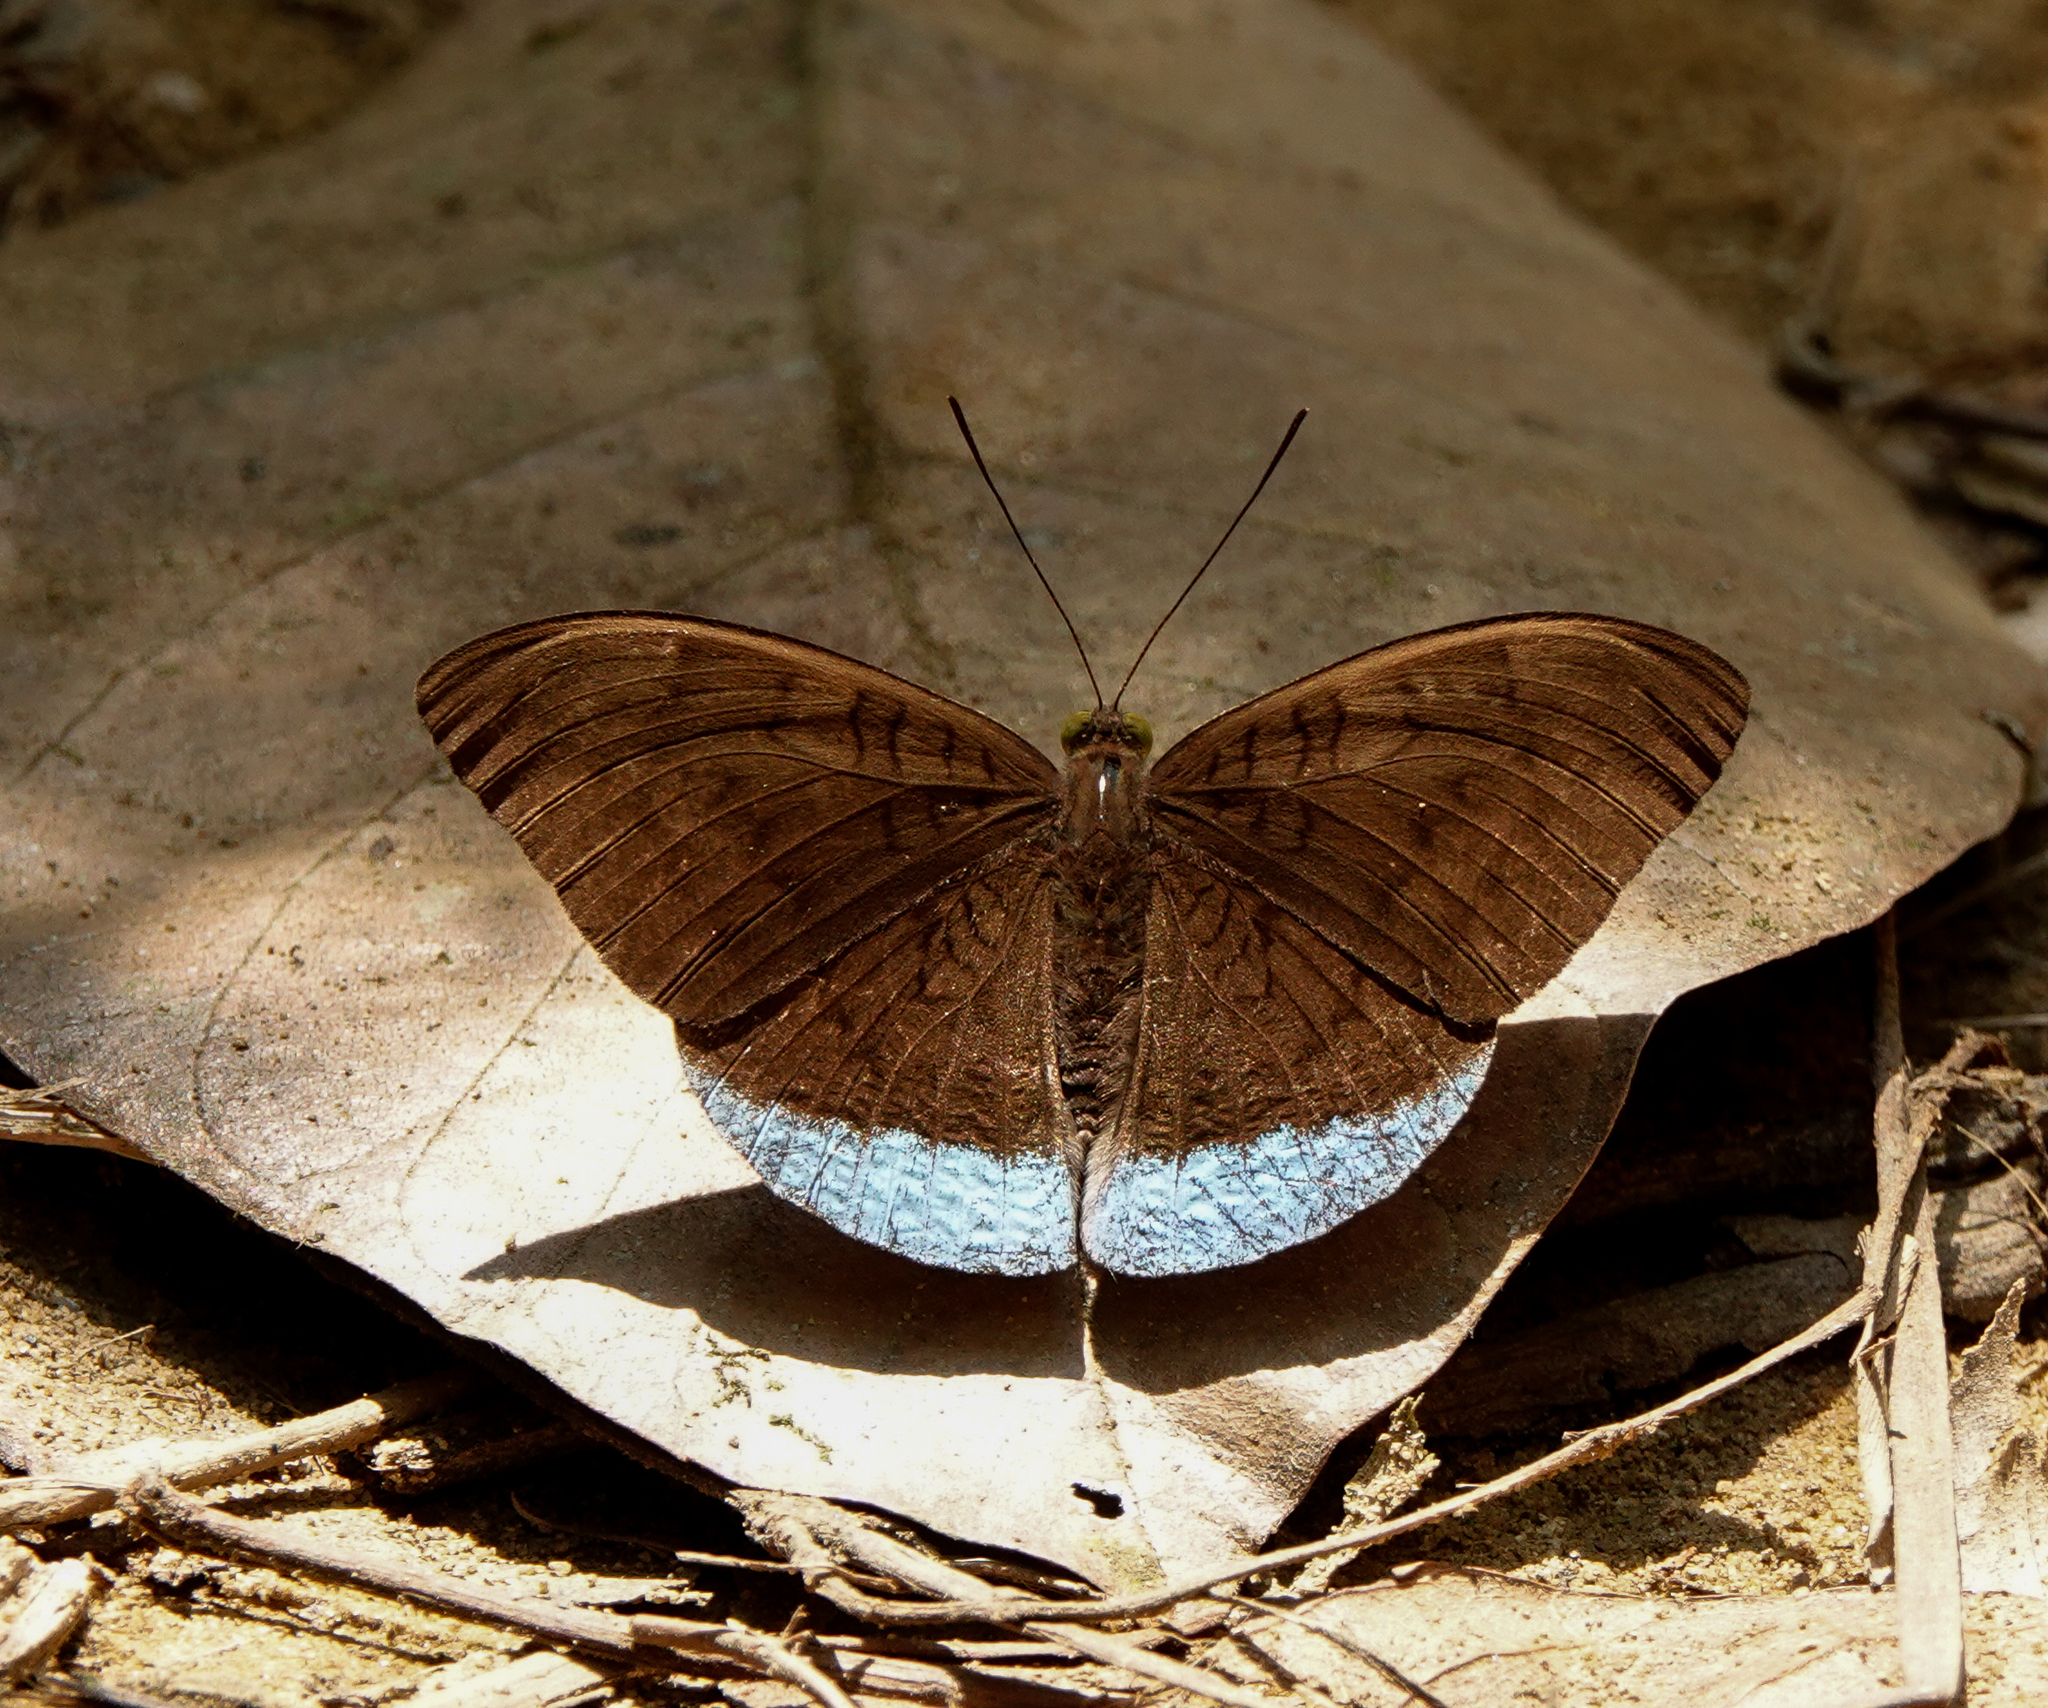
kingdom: Animalia
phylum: Arthropoda
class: Insecta
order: Lepidoptera
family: Nymphalidae
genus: Euthalia
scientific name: Euthalia telchinia
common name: Blue baron
